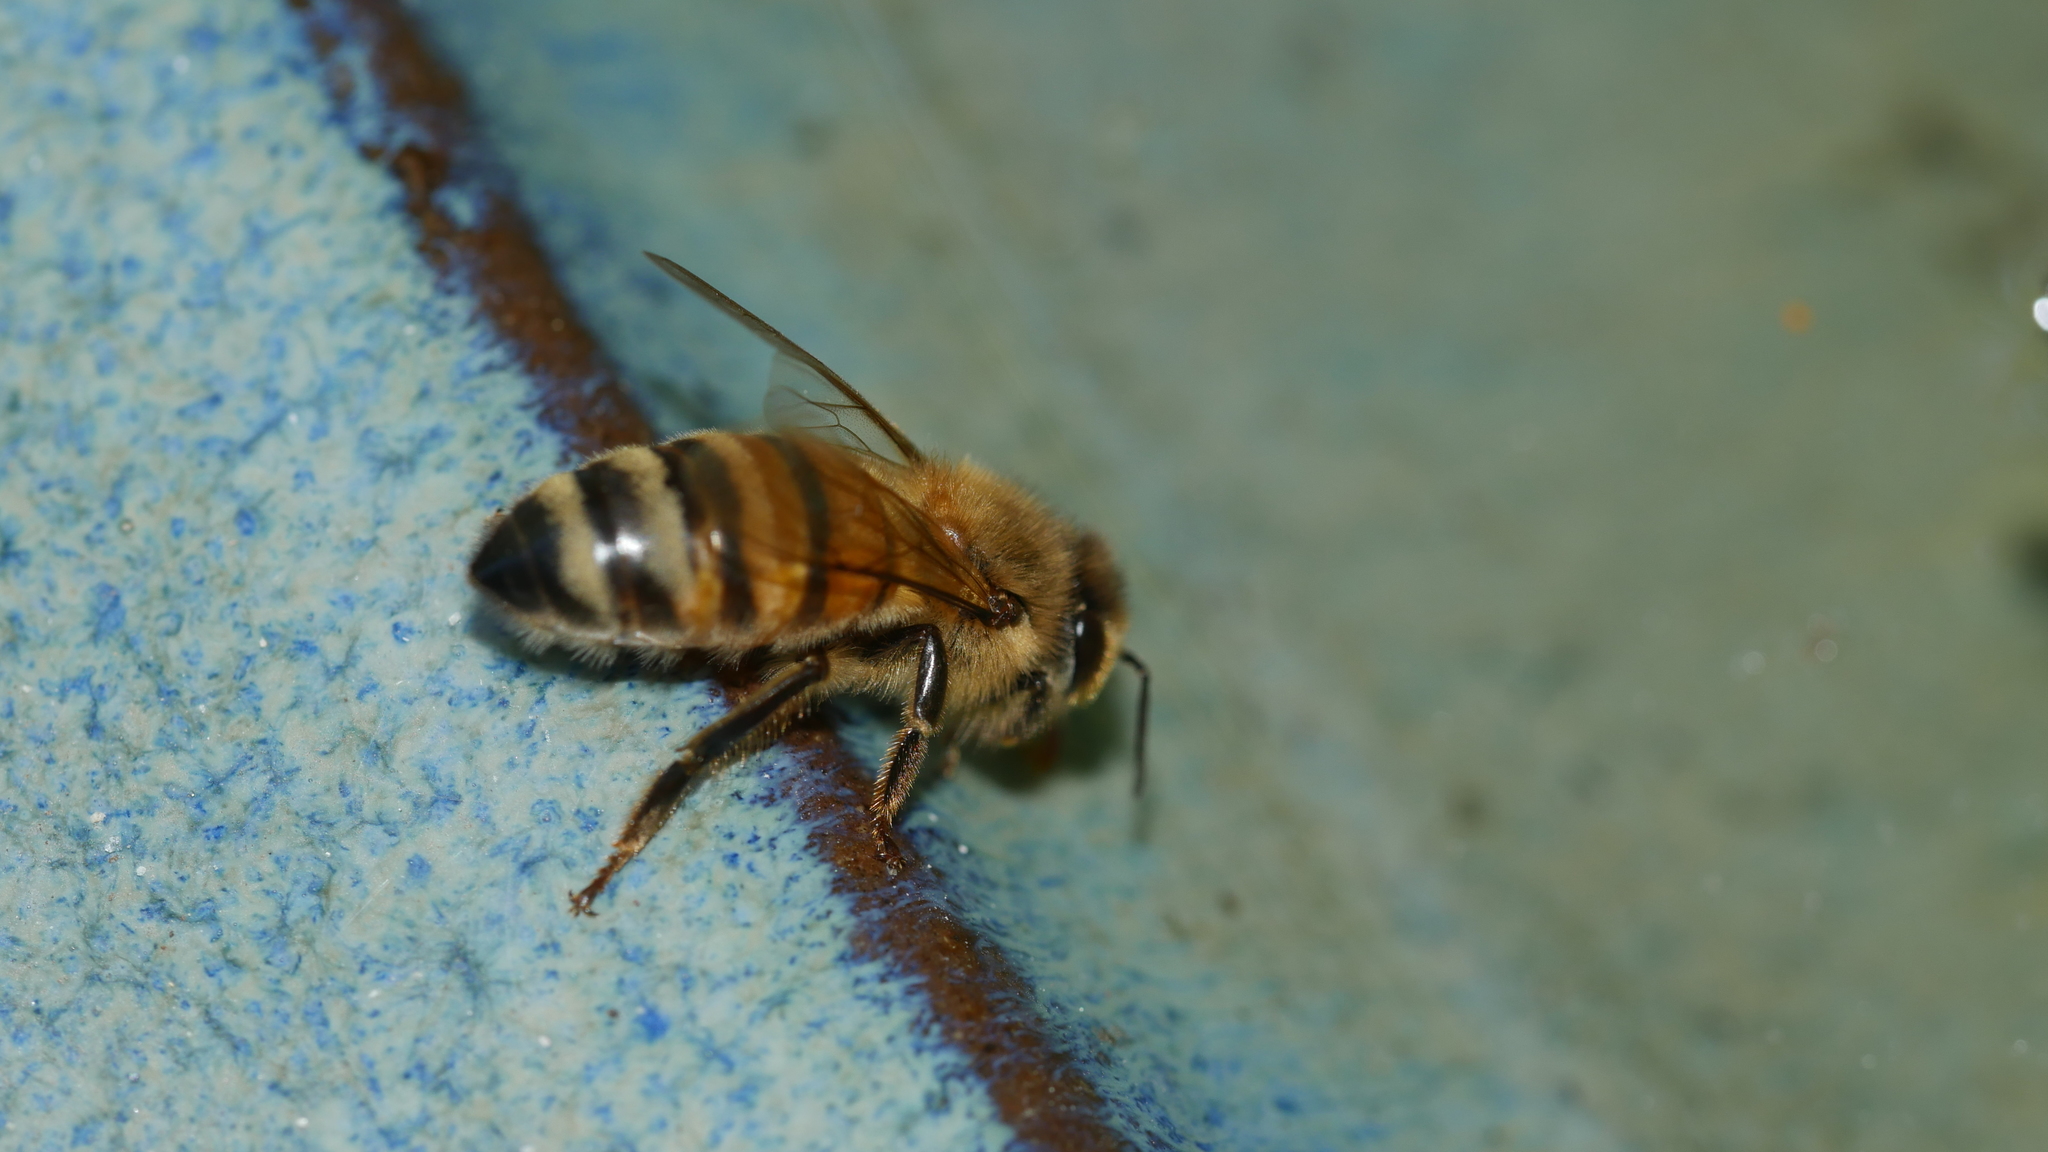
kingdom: Animalia
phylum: Arthropoda
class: Insecta
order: Hymenoptera
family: Apidae
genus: Apis
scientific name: Apis mellifera
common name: Honey bee
